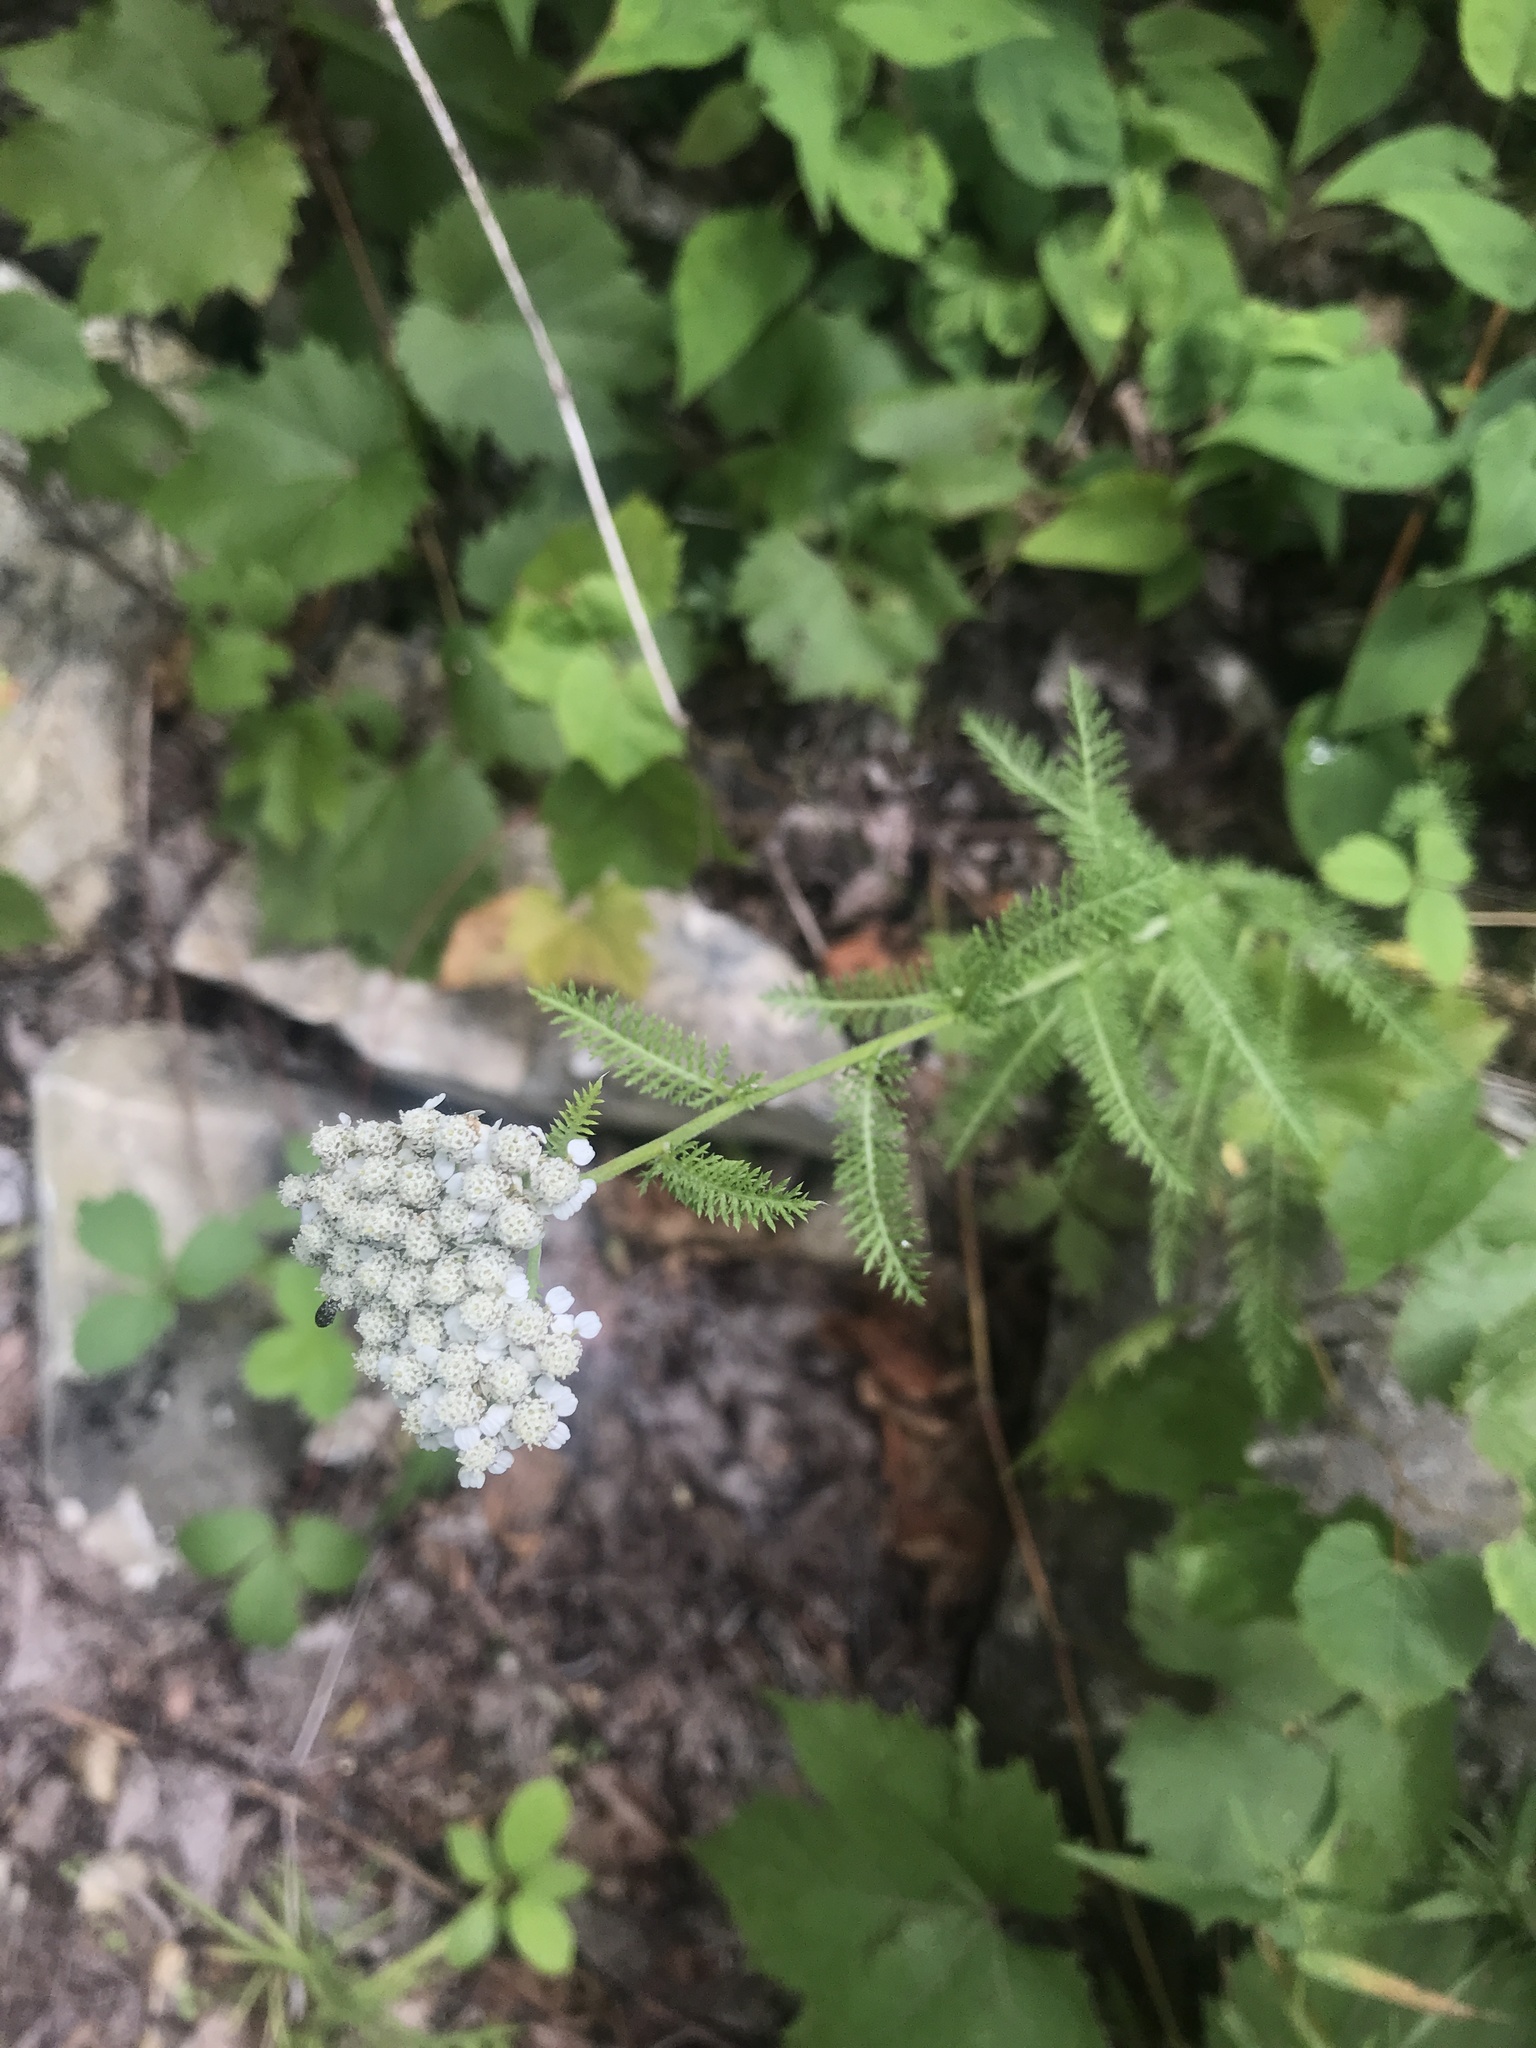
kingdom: Plantae
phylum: Tracheophyta
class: Magnoliopsida
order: Asterales
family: Asteraceae
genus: Achillea
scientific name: Achillea millefolium
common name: Yarrow
